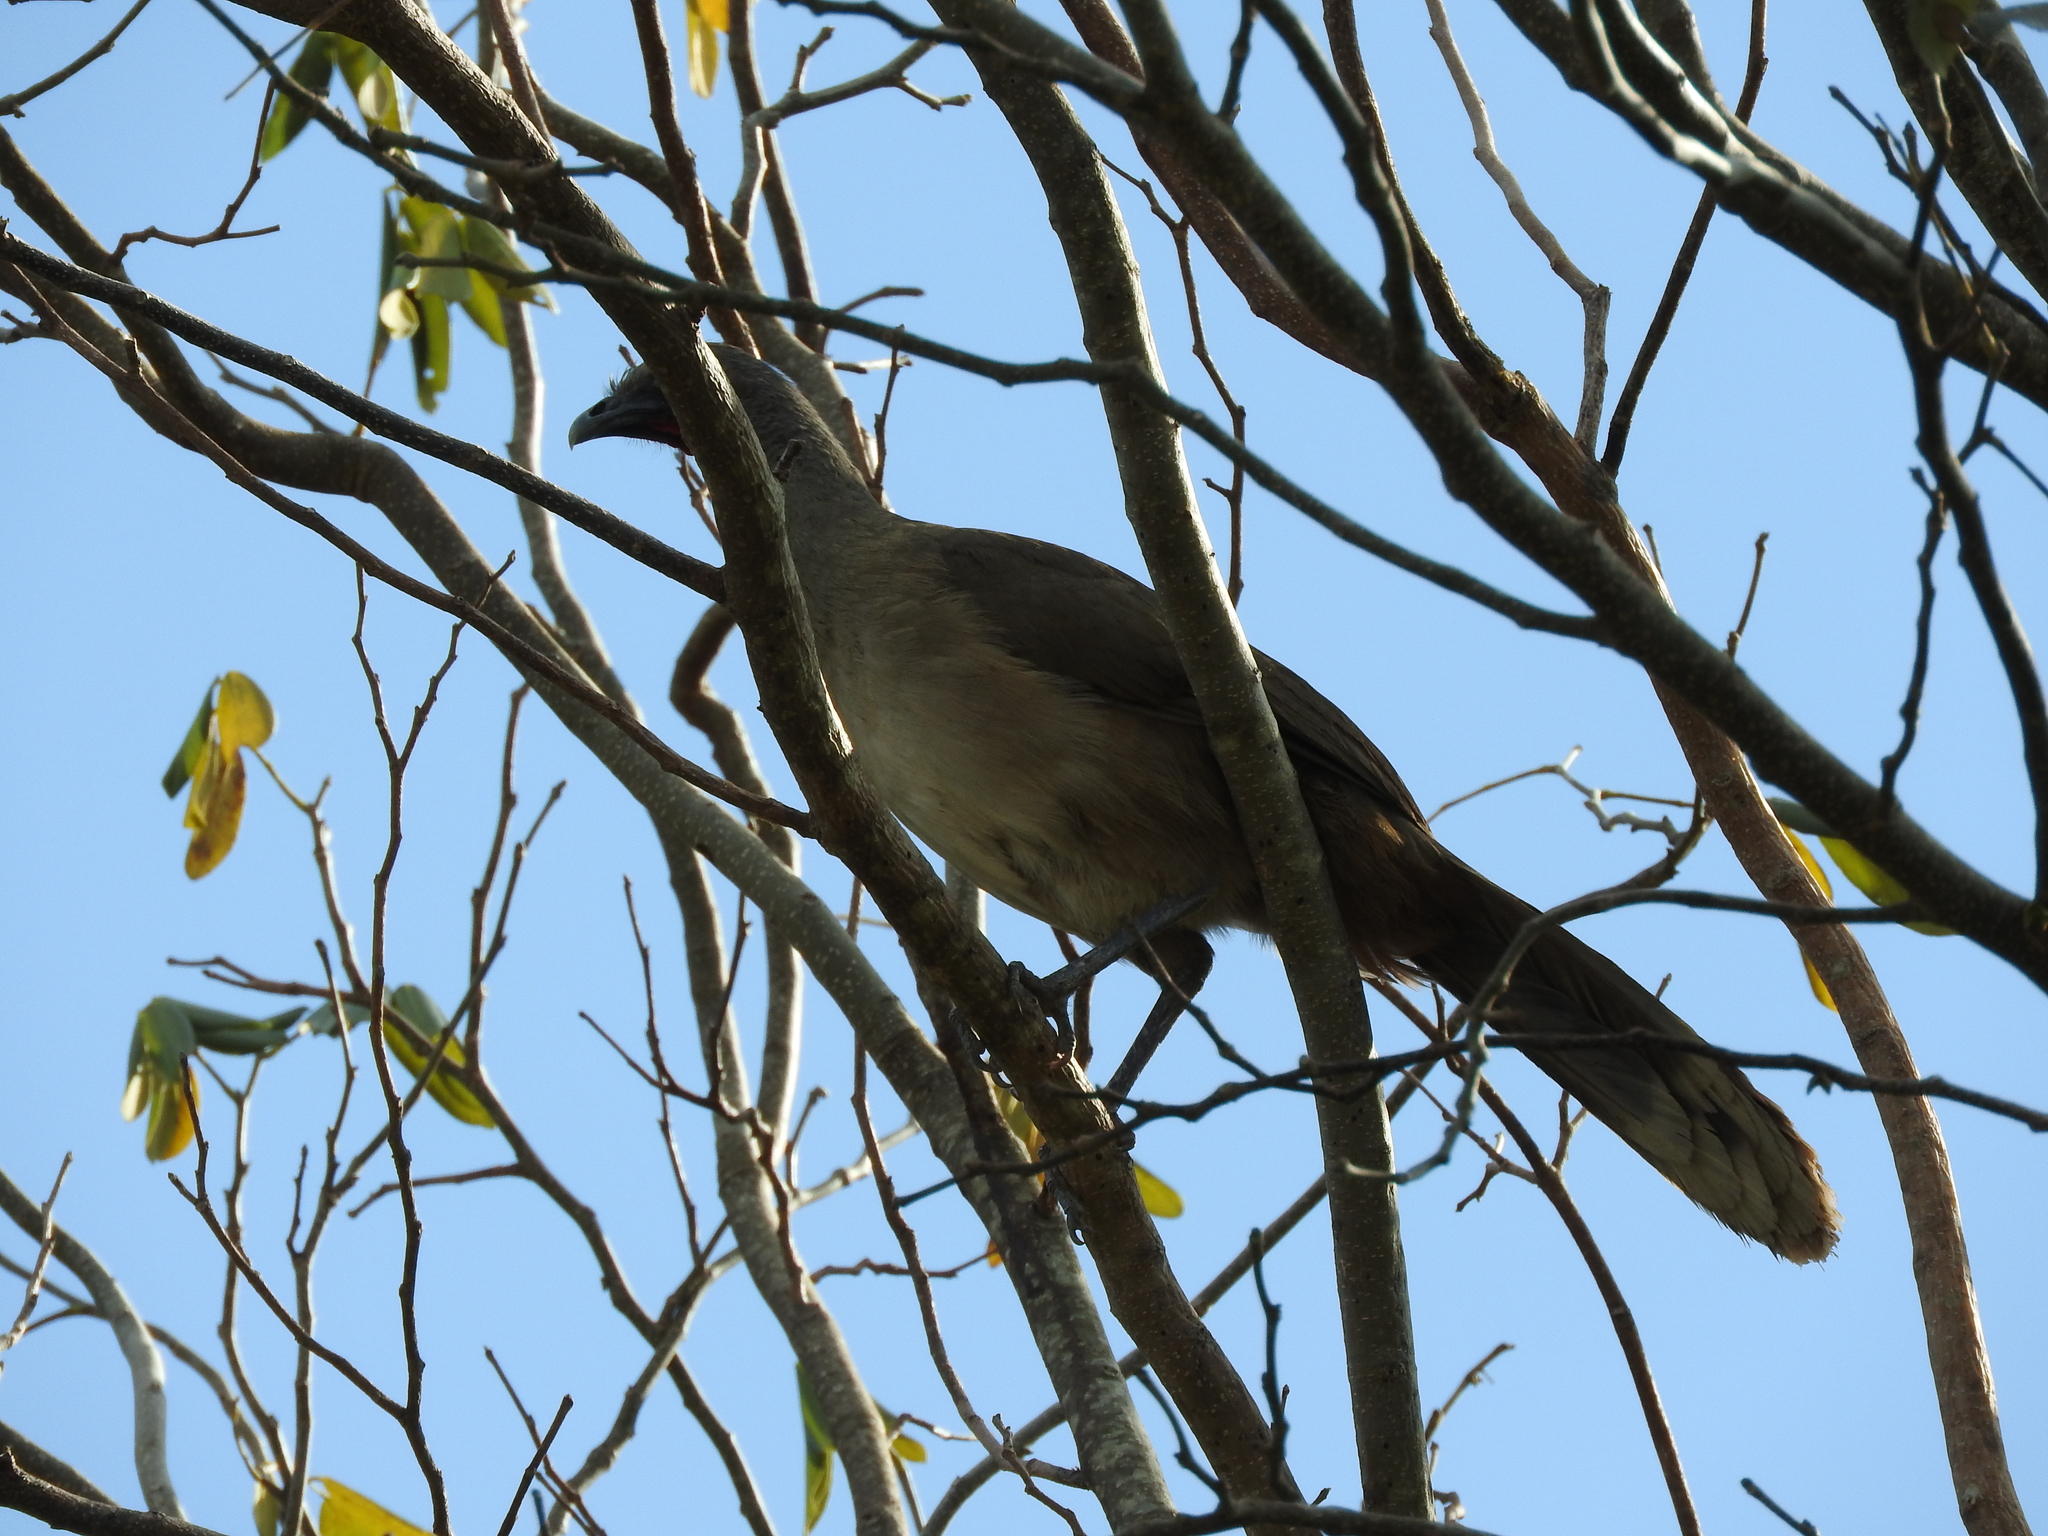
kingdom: Animalia
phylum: Chordata
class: Aves
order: Galliformes
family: Cracidae
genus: Ortalis
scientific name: Ortalis vetula
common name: Plain chachalaca
